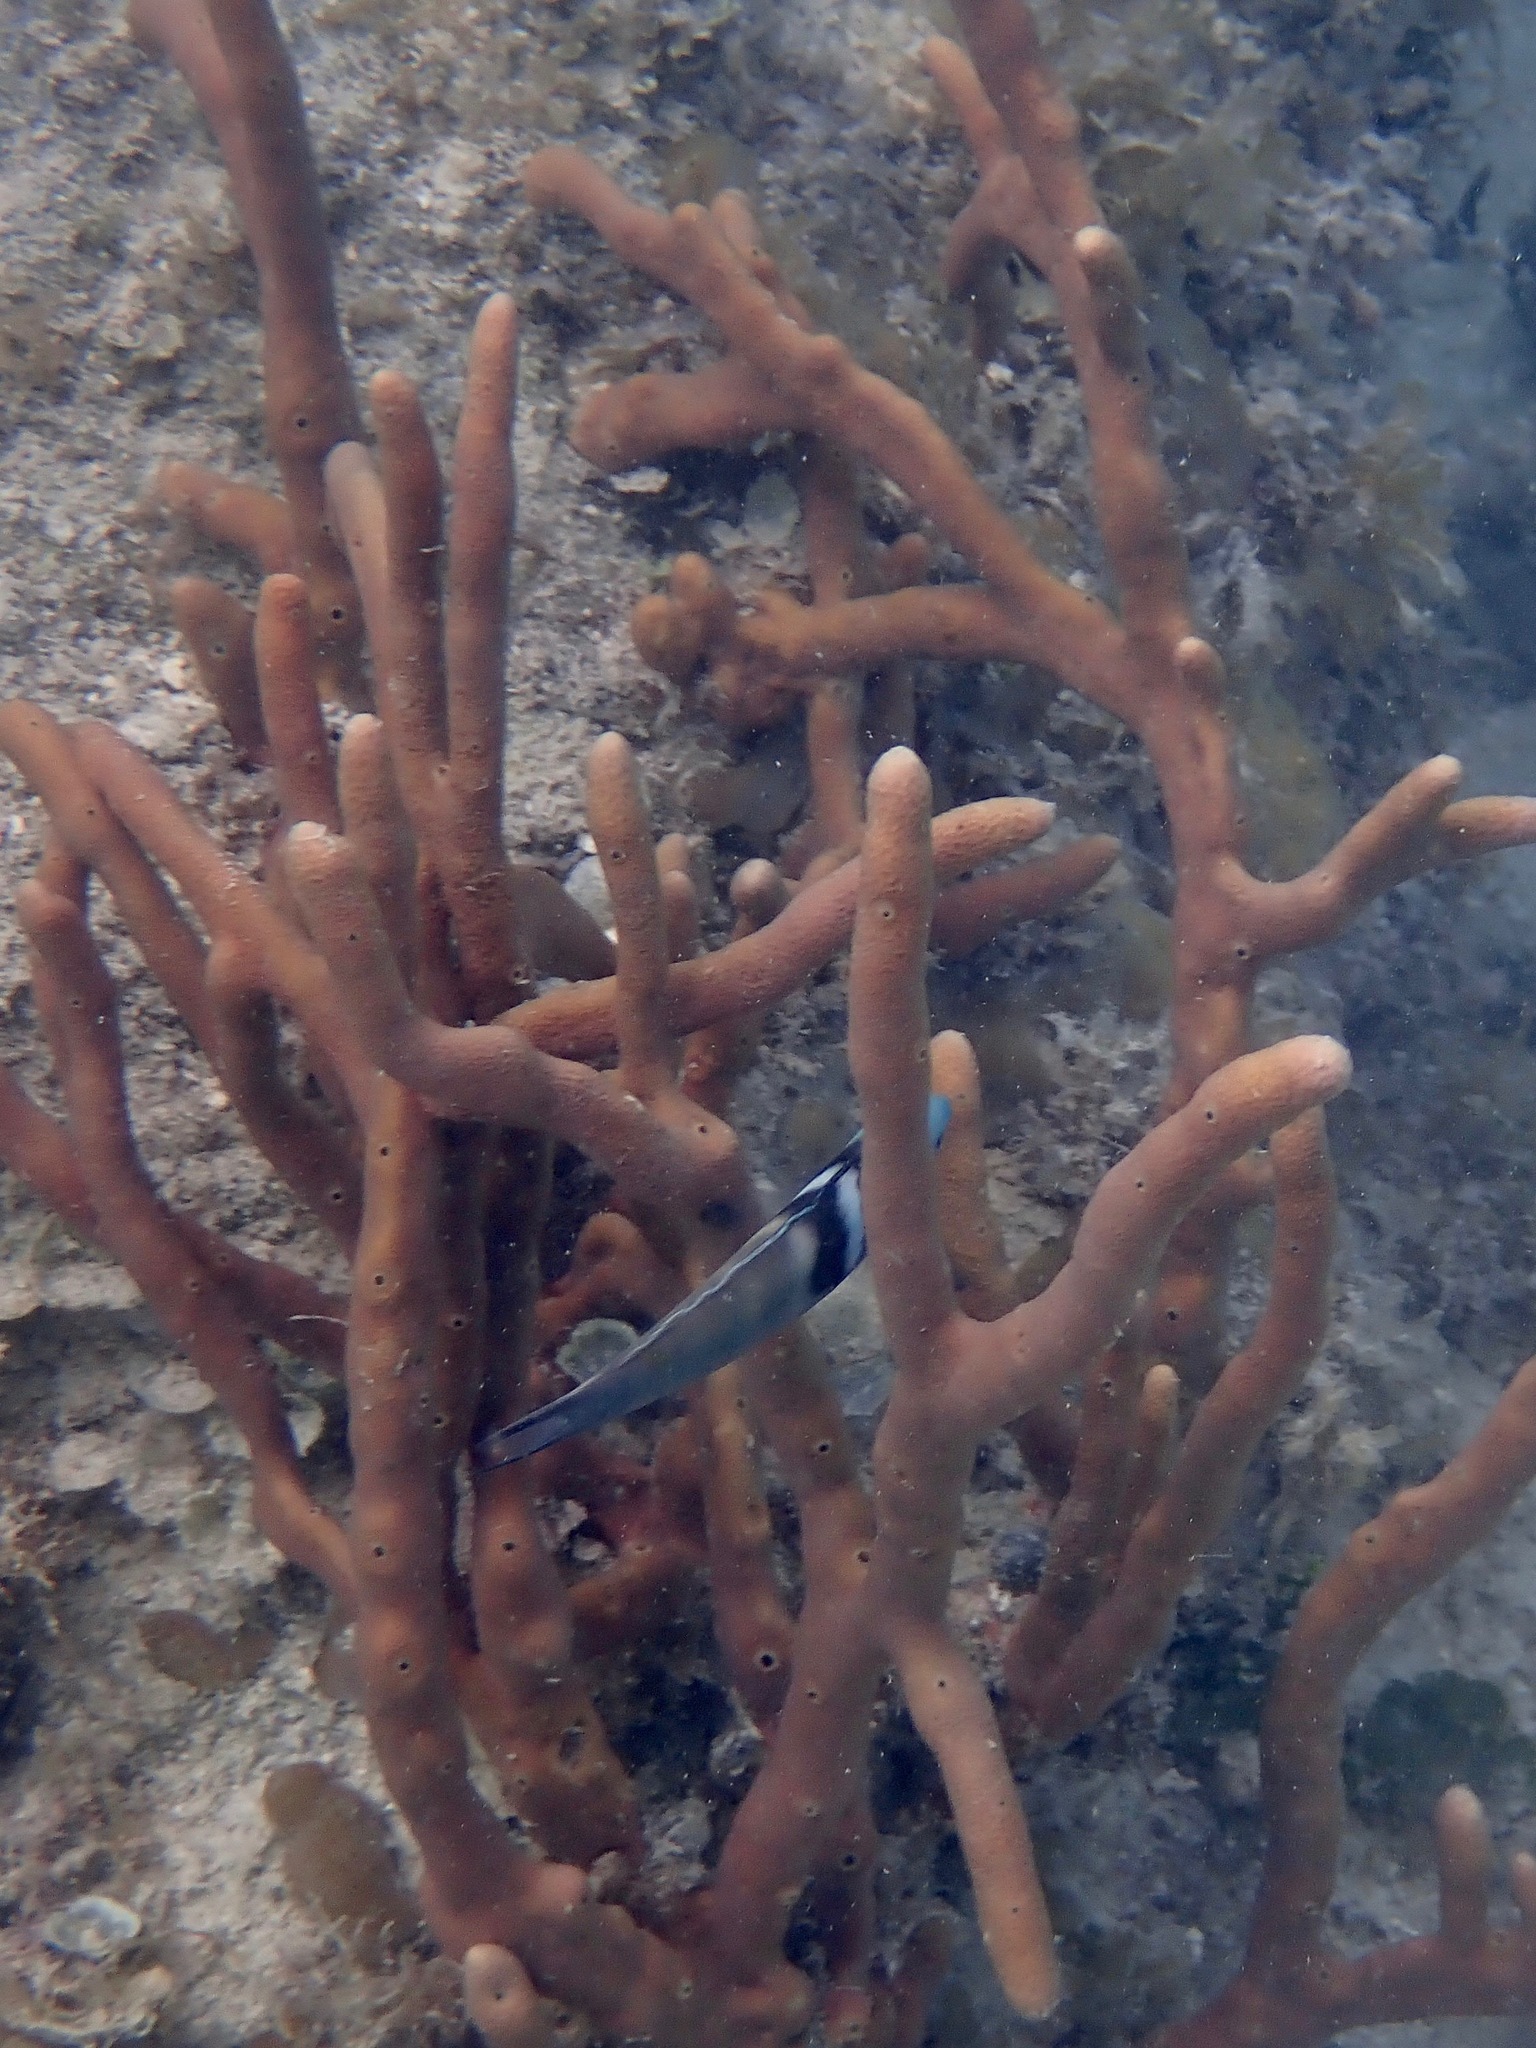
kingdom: Animalia
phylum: Chordata
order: Perciformes
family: Labridae
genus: Thalassoma
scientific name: Thalassoma bifasciatum
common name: Bluehead wrasse
